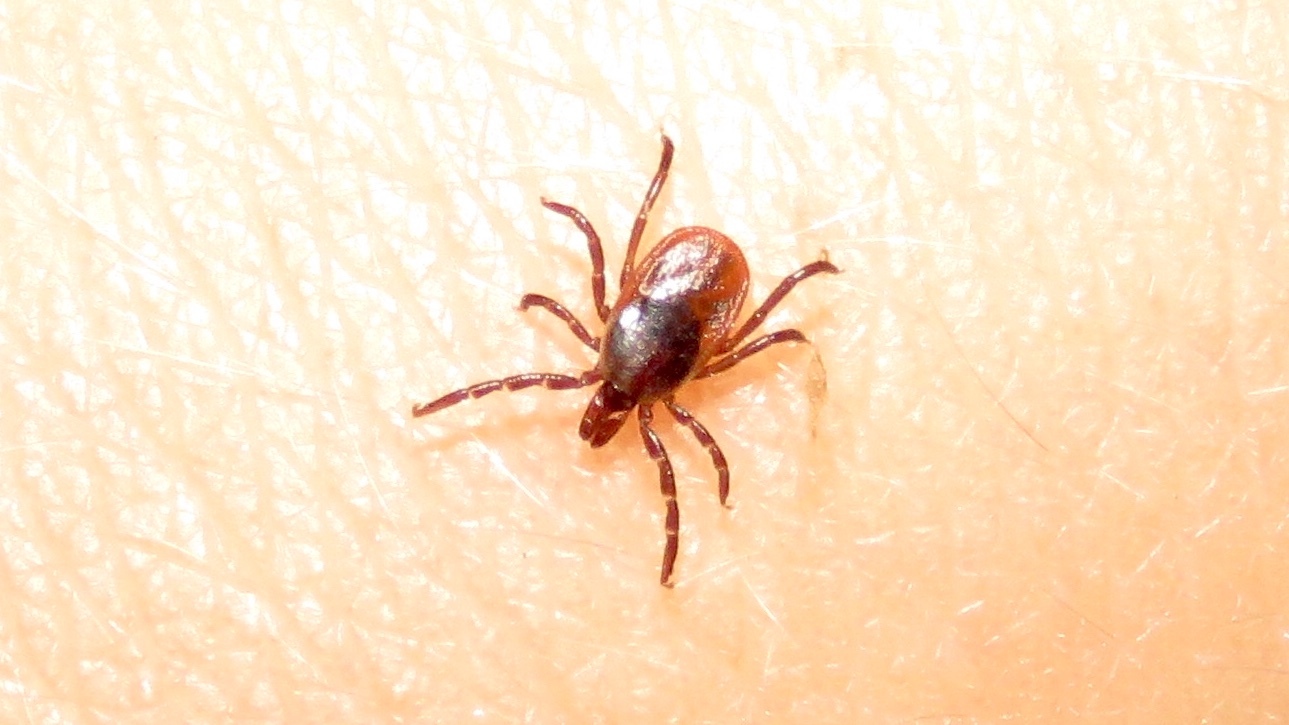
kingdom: Animalia
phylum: Arthropoda
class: Arachnida
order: Ixodida
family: Ixodidae
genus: Ixodes
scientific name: Ixodes scapularis
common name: Black legged tick
